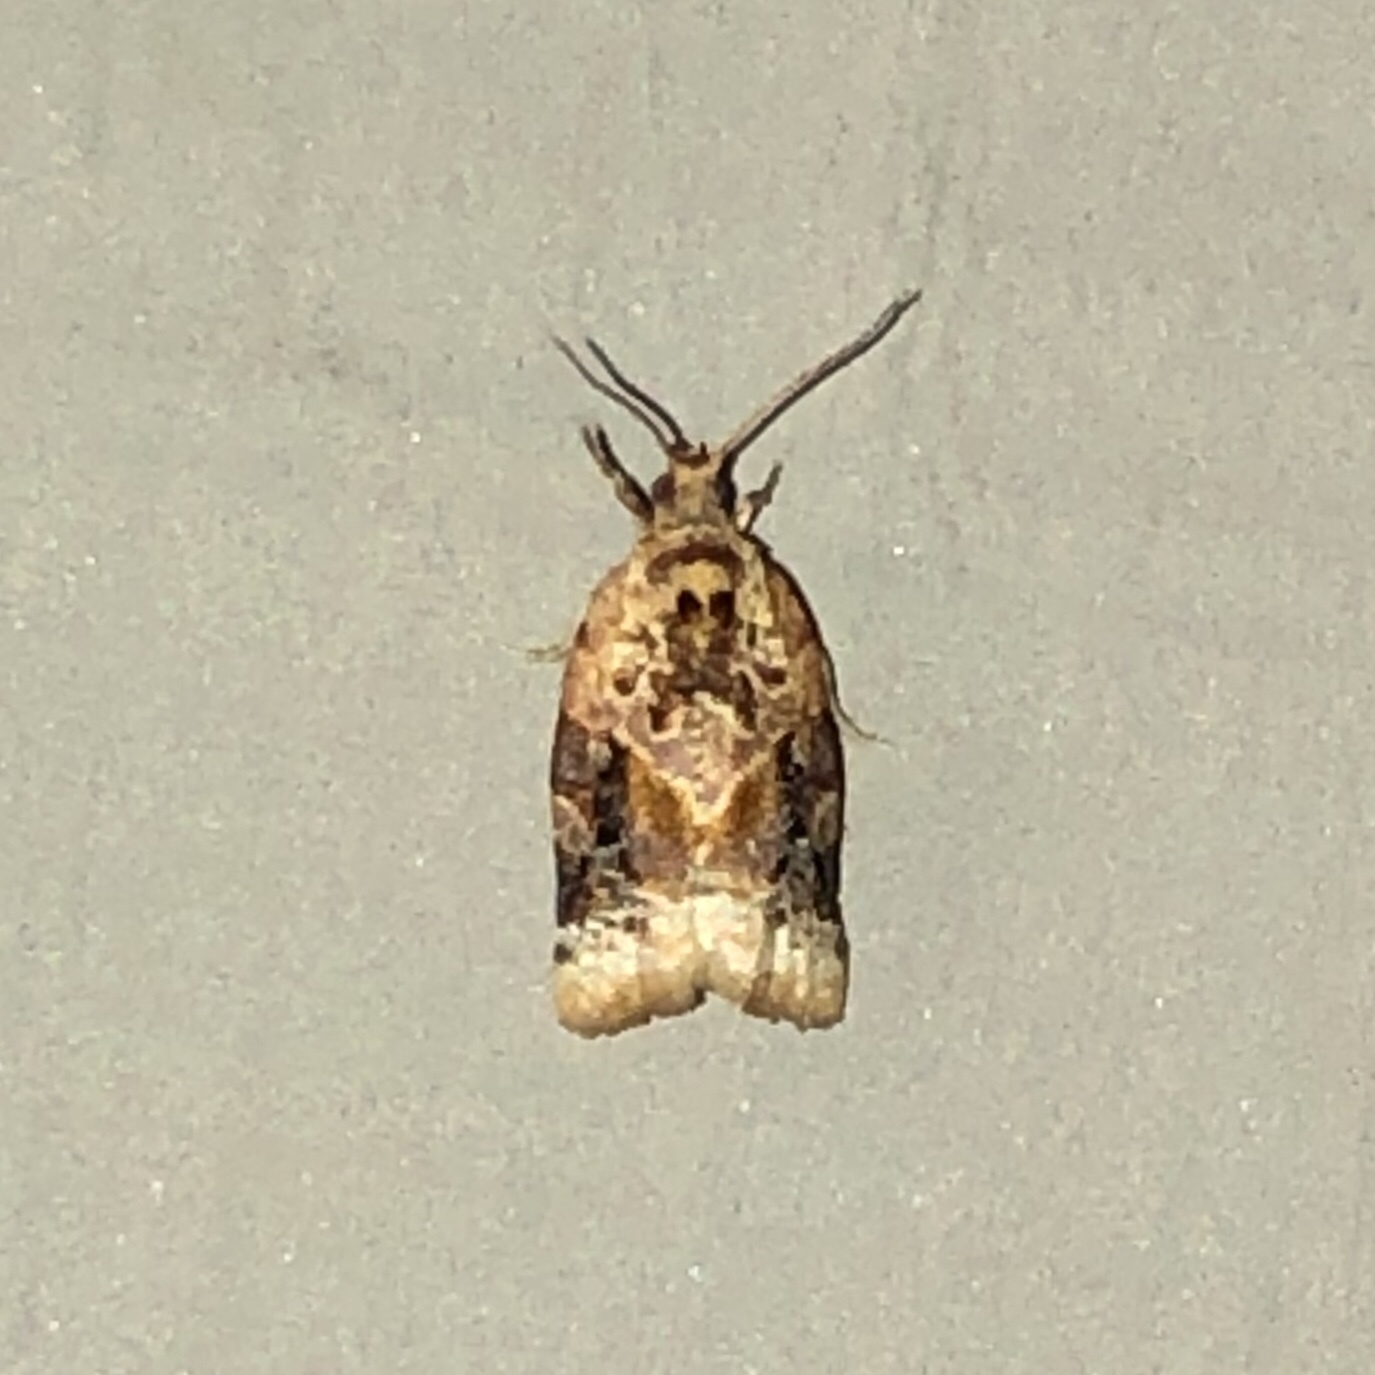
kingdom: Animalia
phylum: Arthropoda
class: Insecta
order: Lepidoptera
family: Tortricidae
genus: Argyrotaenia
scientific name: Argyrotaenia velutinana
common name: Red-banded leafroller moth
